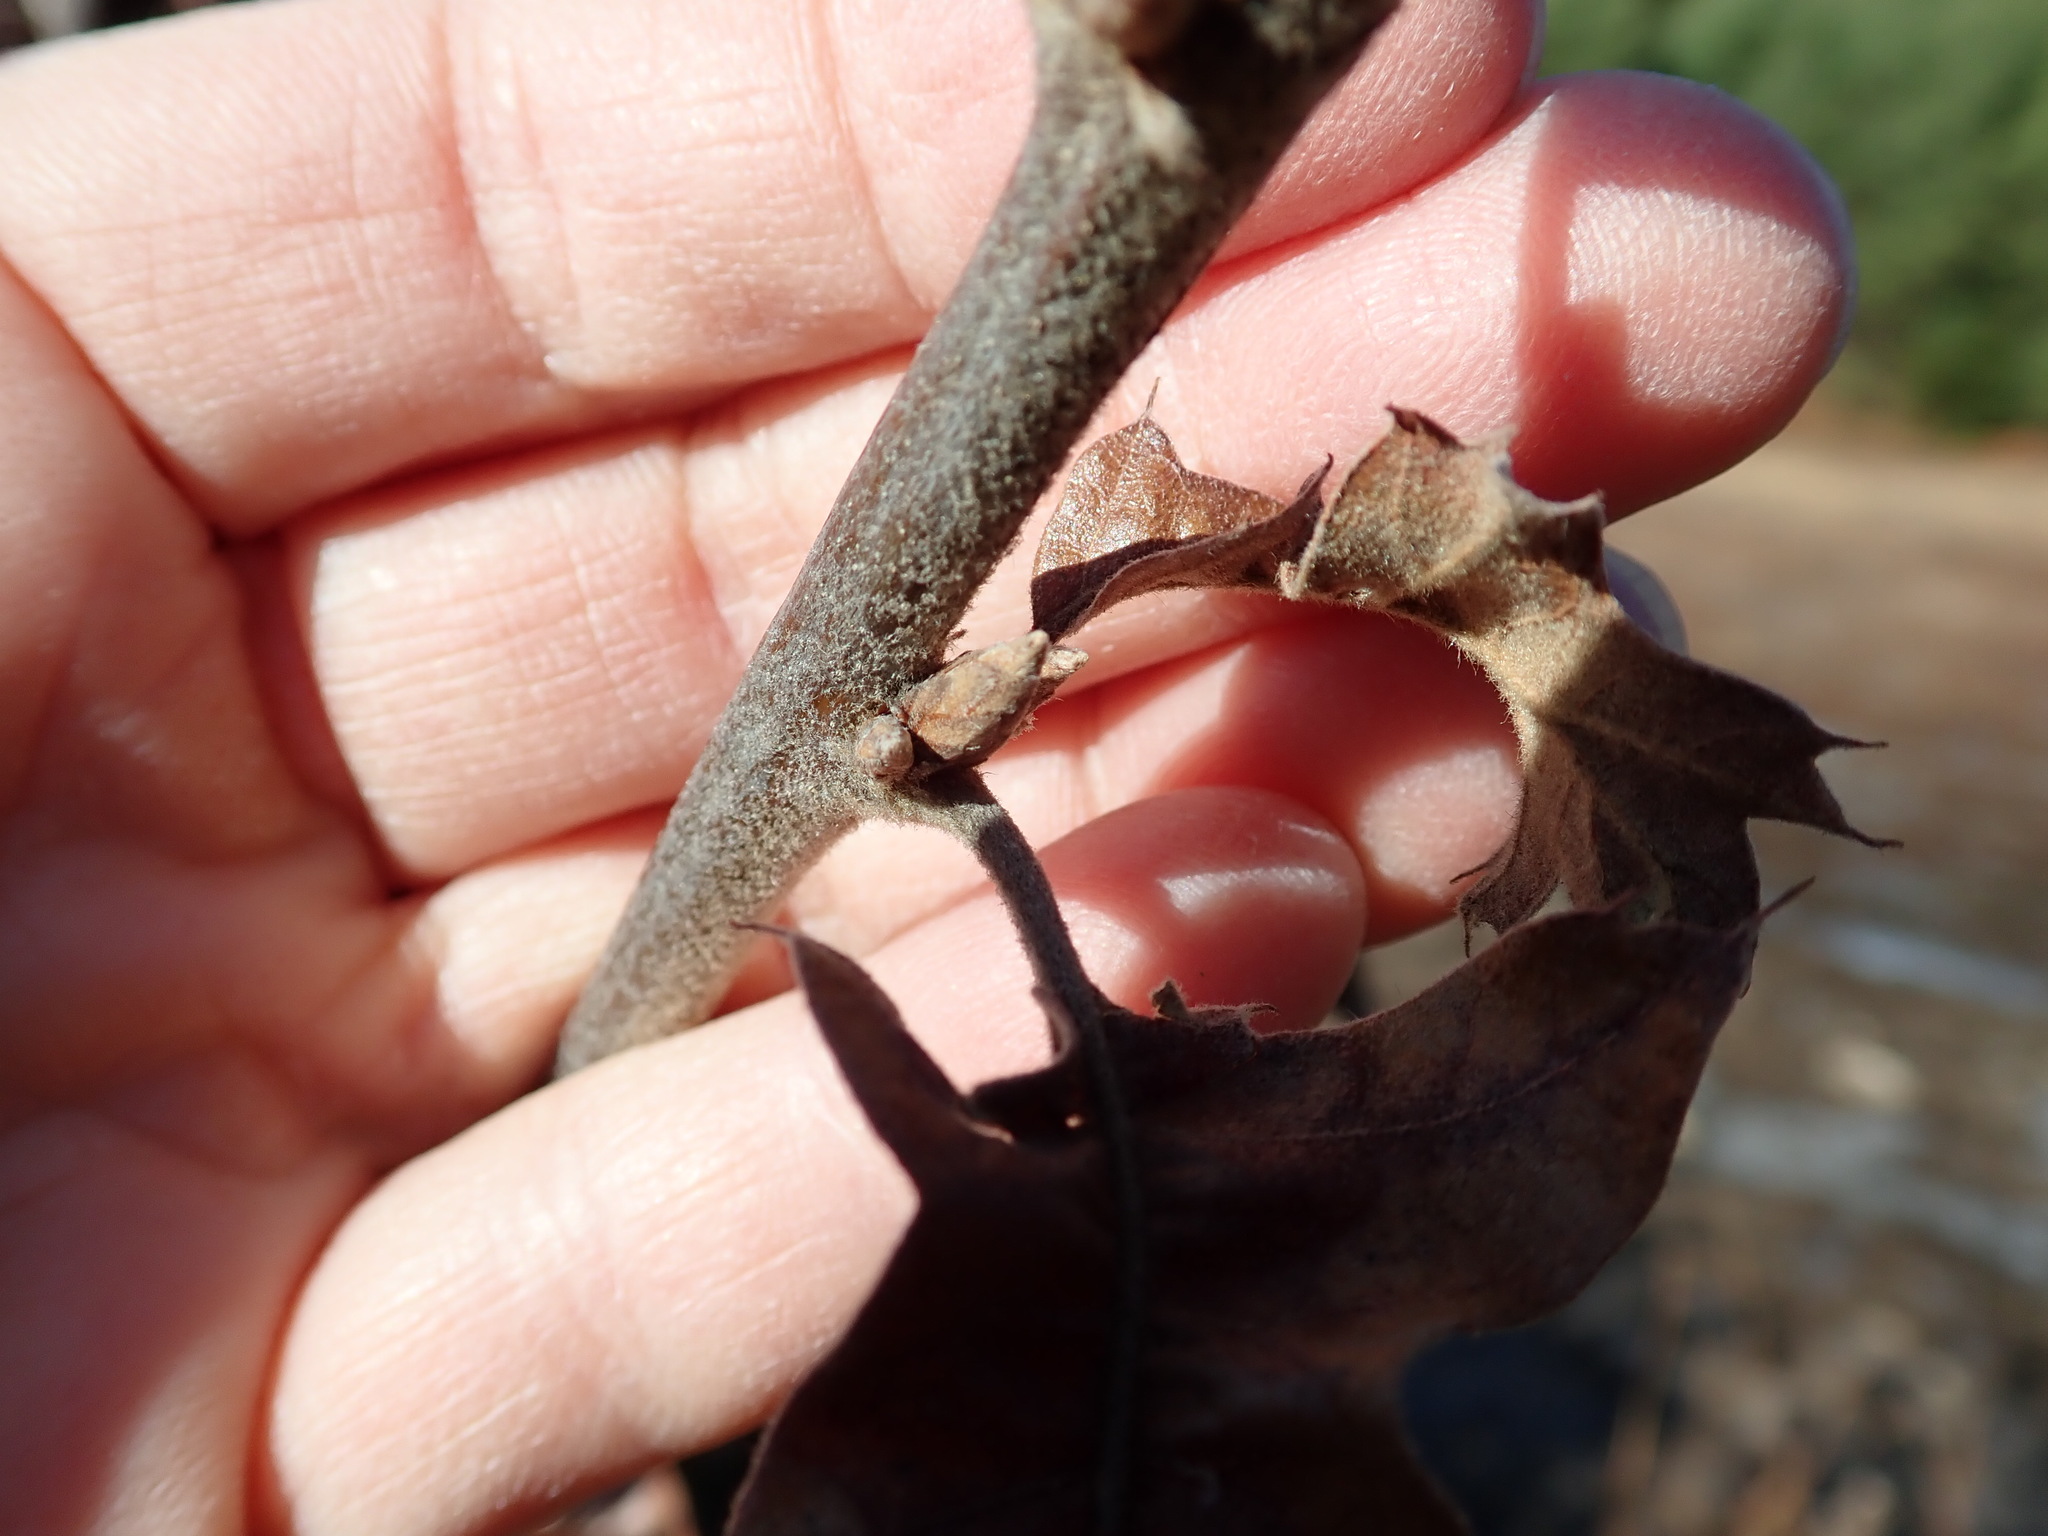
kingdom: Plantae
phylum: Tracheophyta
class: Magnoliopsida
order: Fagales
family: Fagaceae
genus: Quercus
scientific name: Quercus ilicifolia
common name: Bear oak
